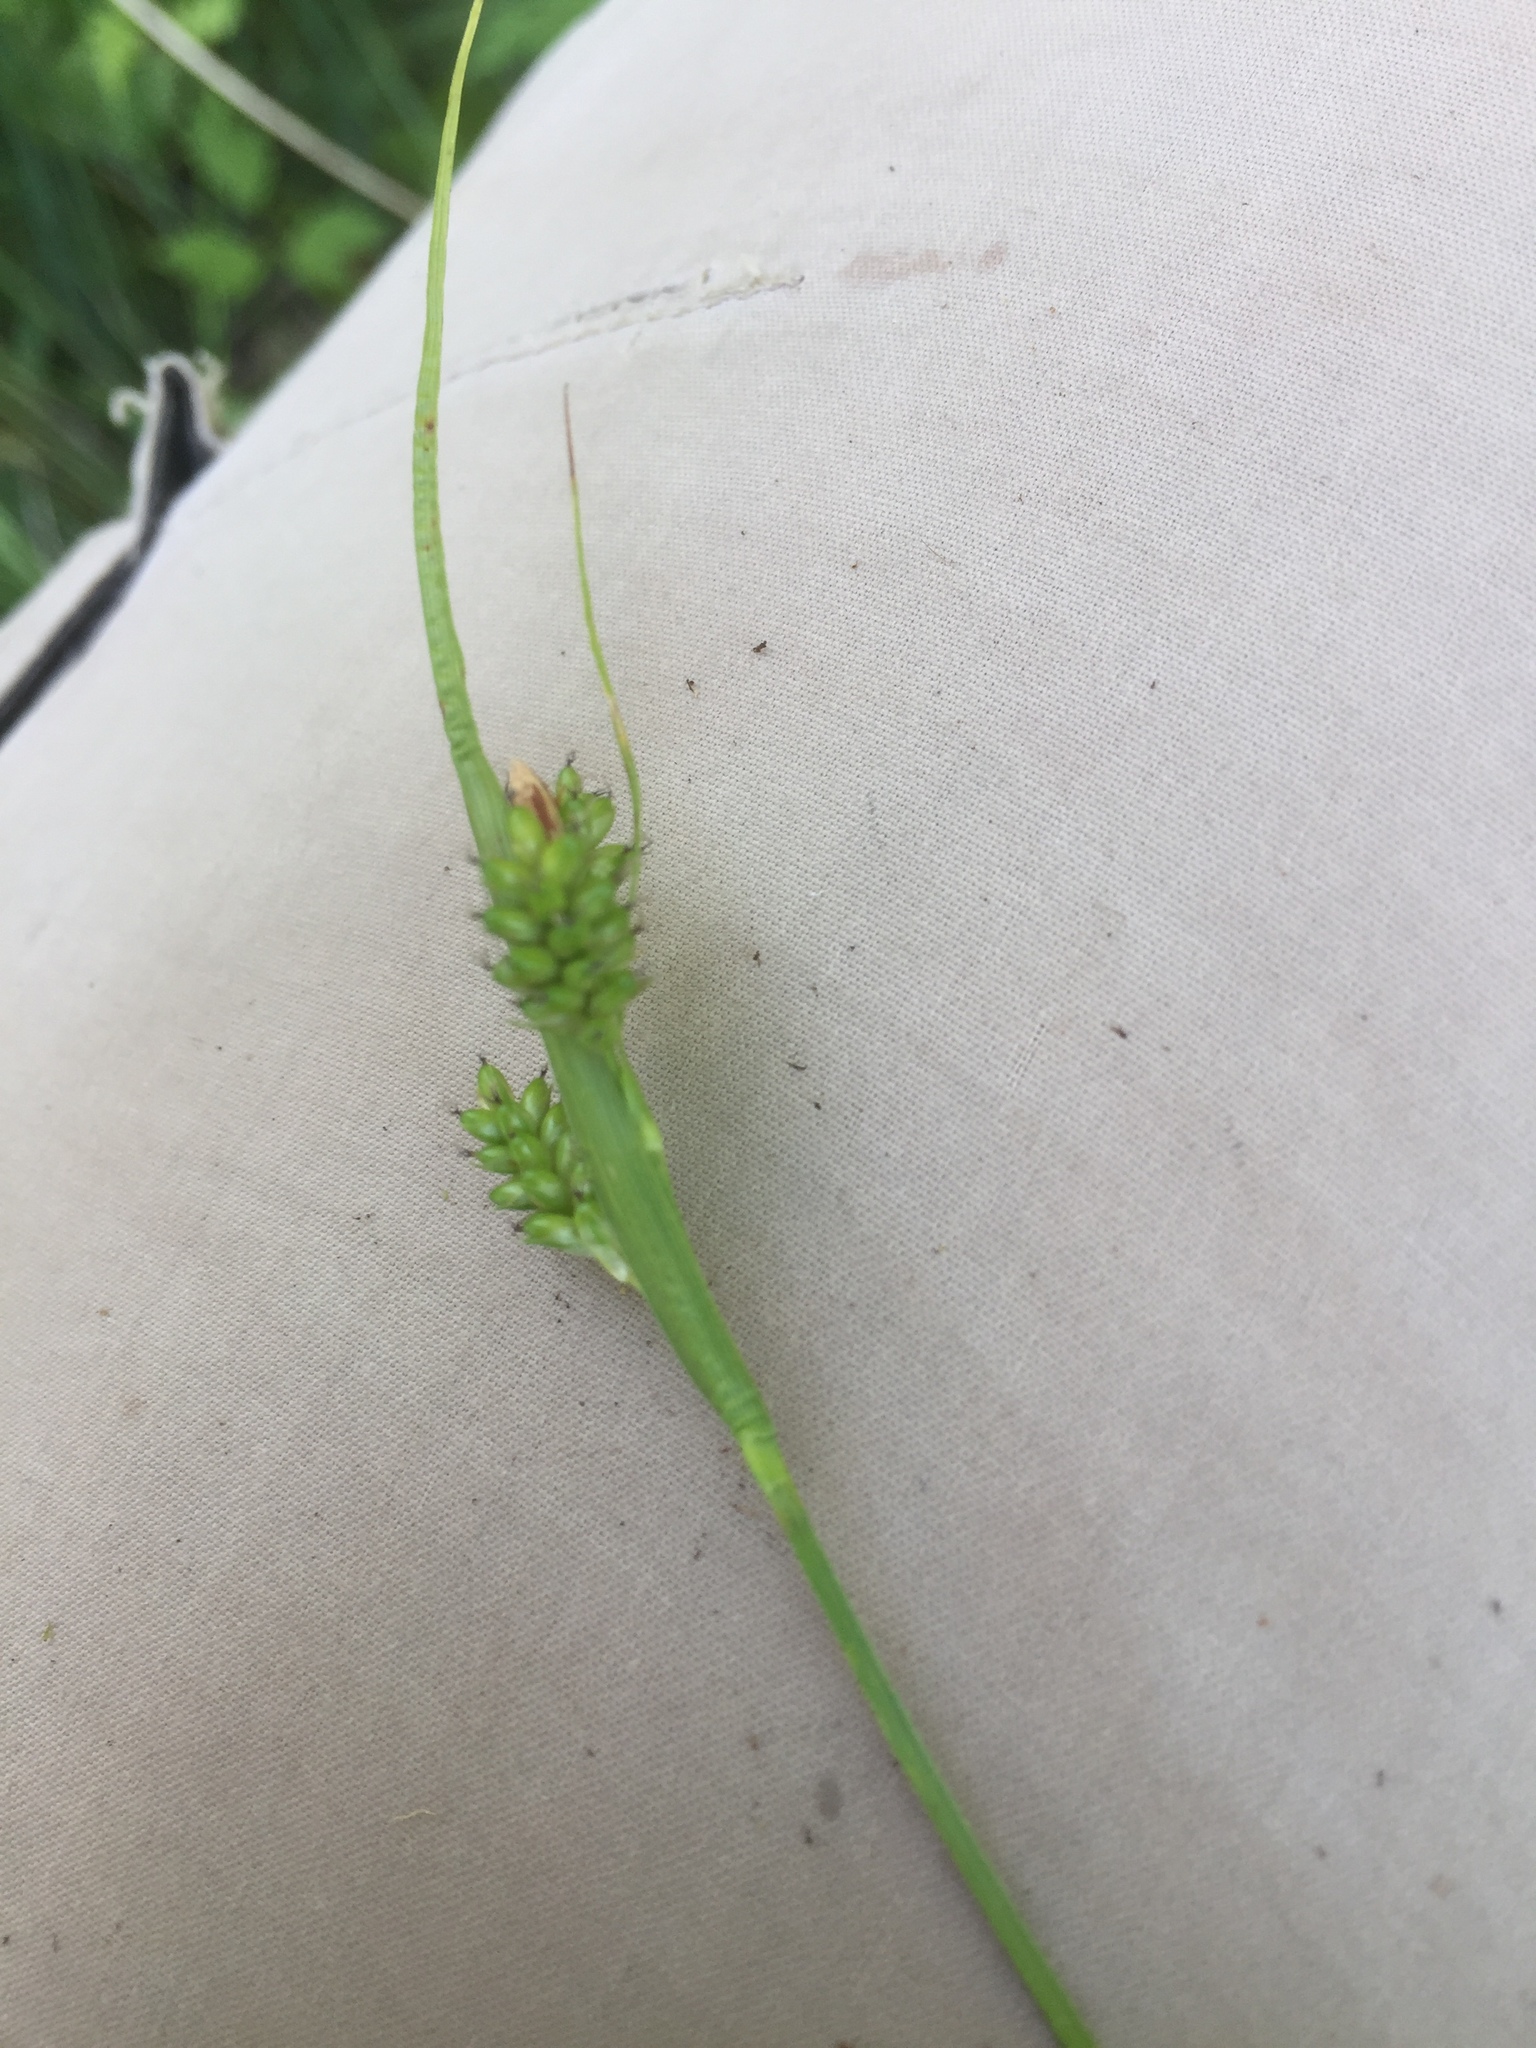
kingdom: Plantae
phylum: Tracheophyta
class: Liliopsida
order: Poales
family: Cyperaceae
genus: Carex
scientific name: Carex pallescens
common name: Pale sedge
